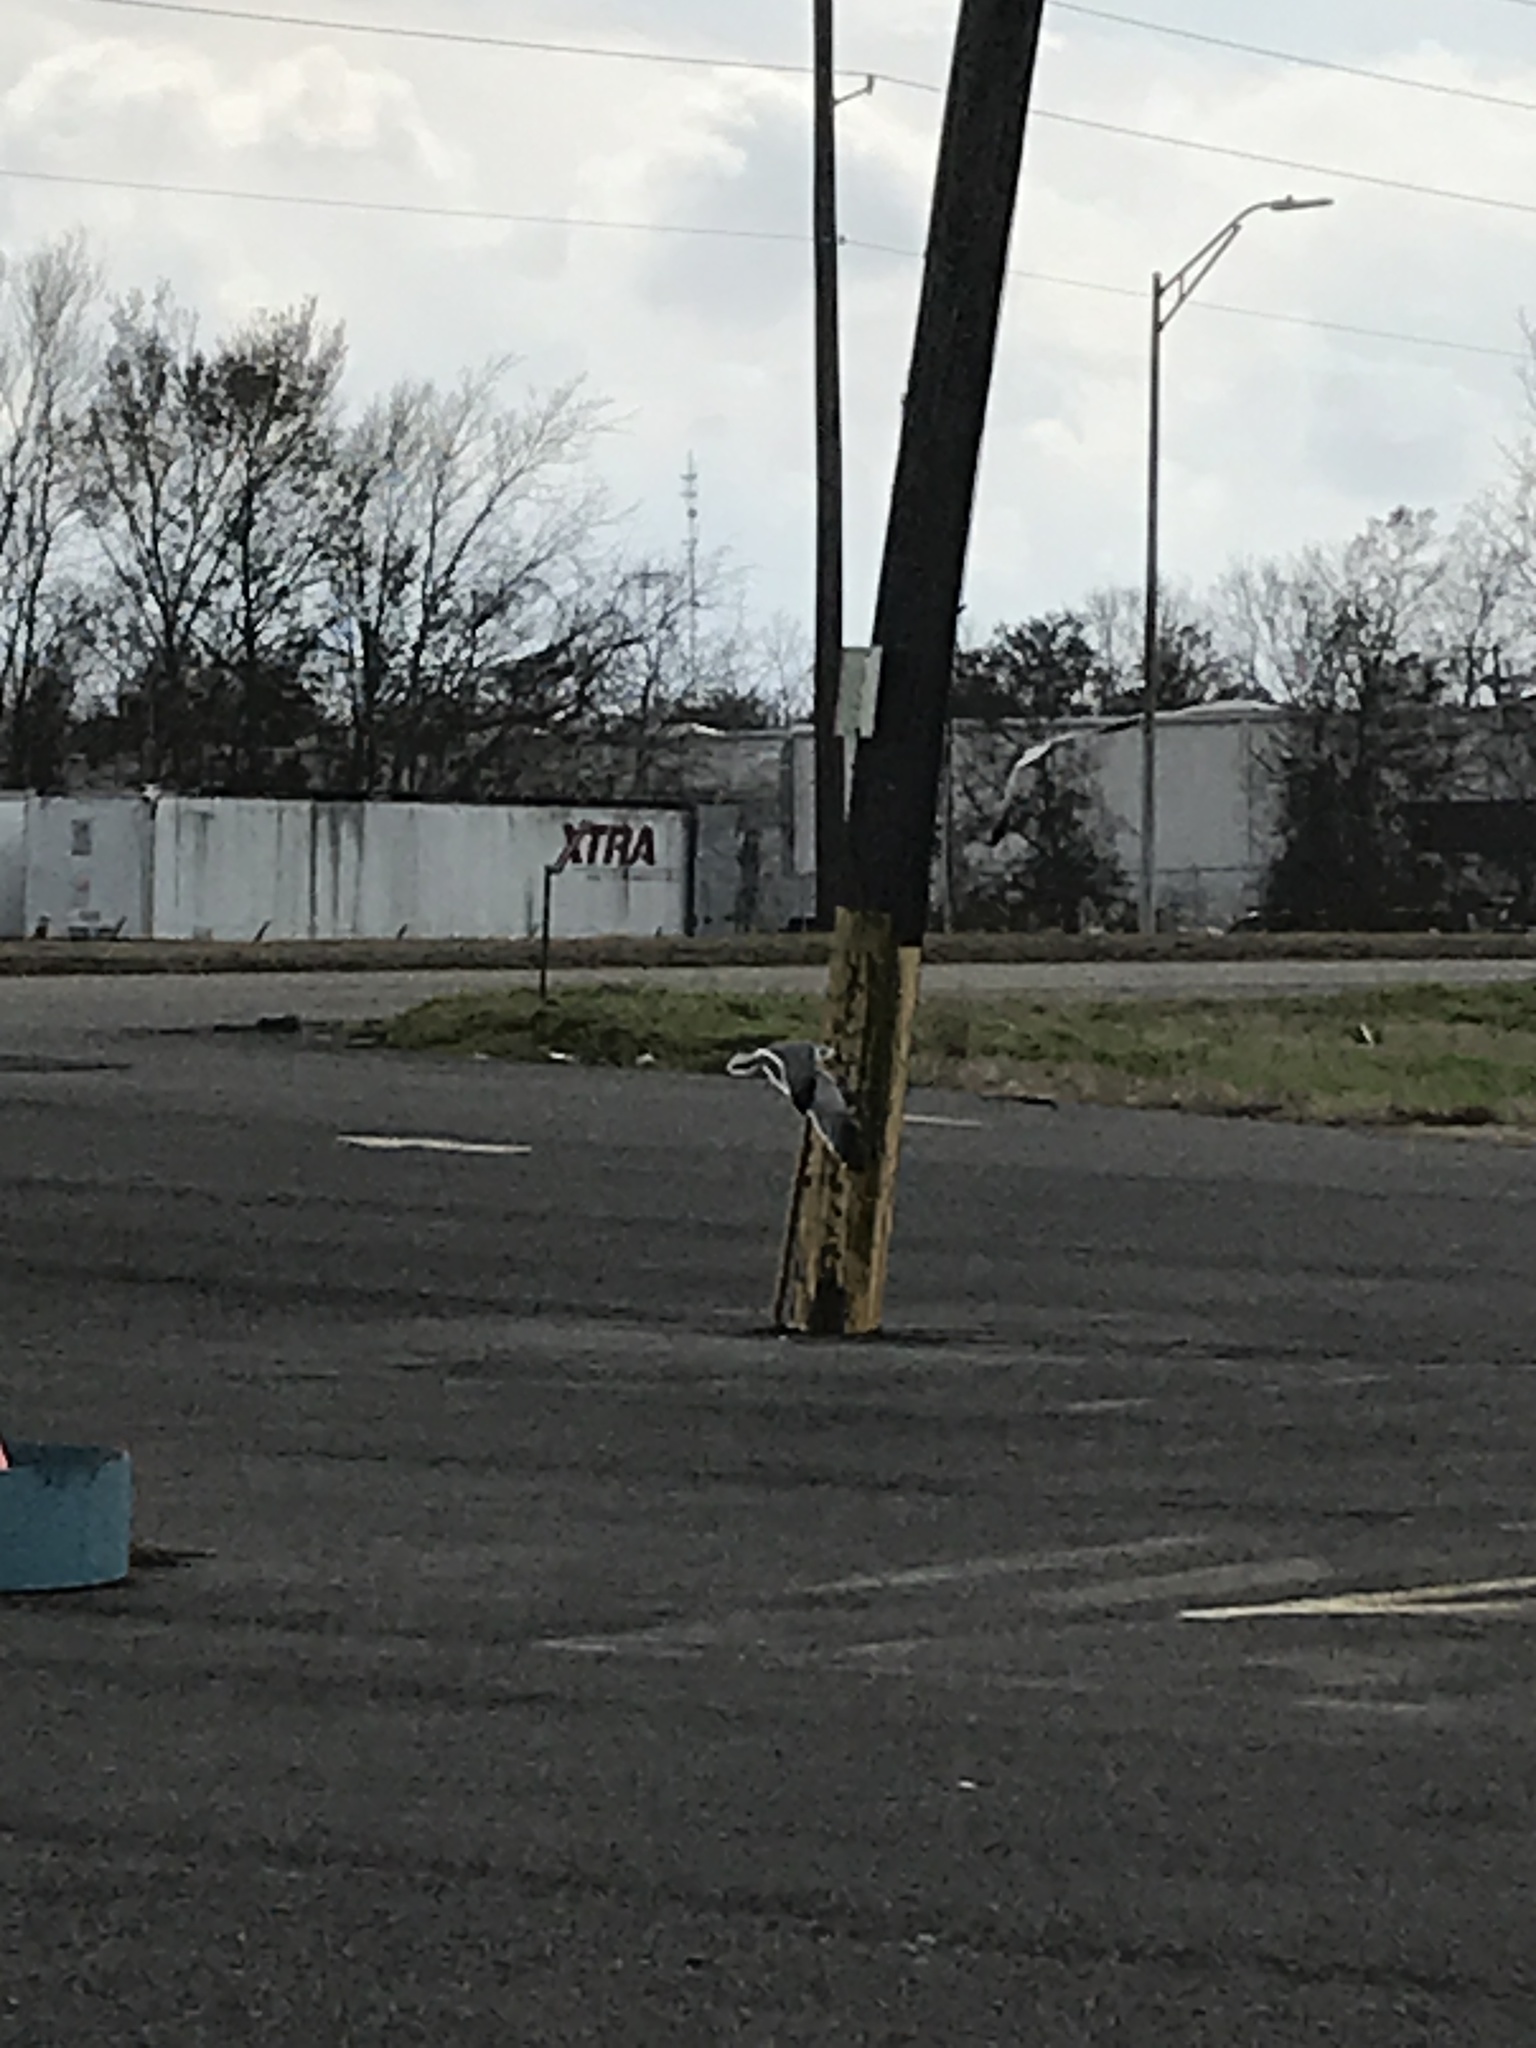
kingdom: Animalia
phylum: Chordata
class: Aves
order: Charadriiformes
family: Laridae
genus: Leucophaeus
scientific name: Leucophaeus atricilla
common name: Laughing gull
